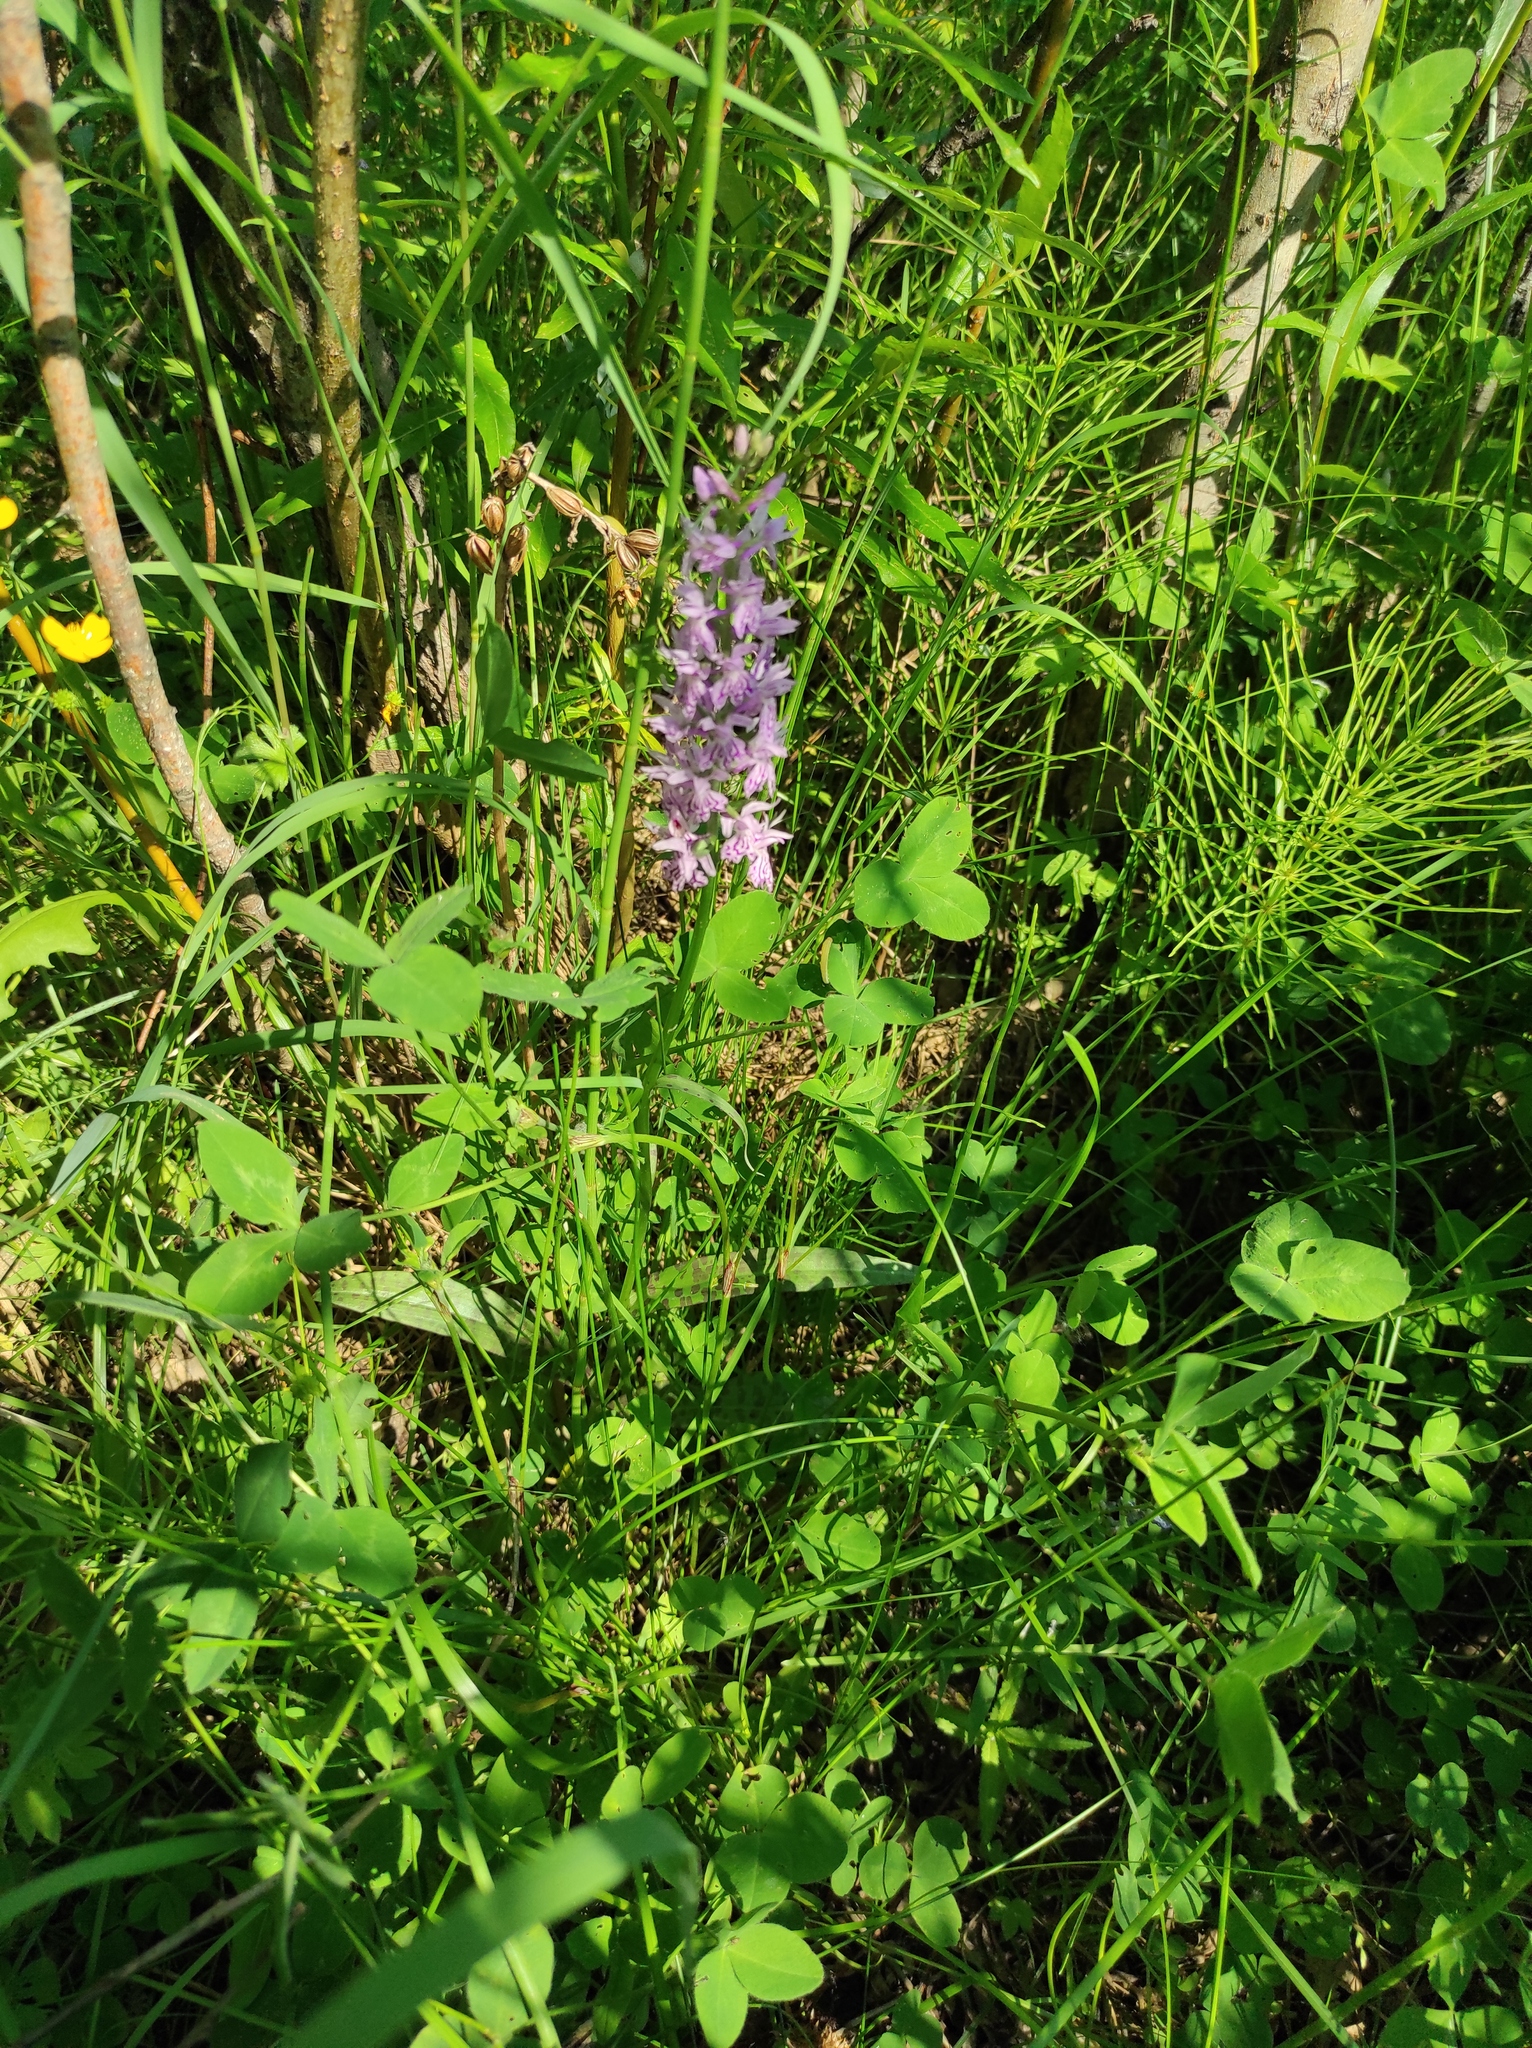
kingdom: Plantae
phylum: Tracheophyta
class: Polypodiopsida
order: Equisetales
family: Equisetaceae
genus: Equisetum
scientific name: Equisetum arvense
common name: Field horsetail
